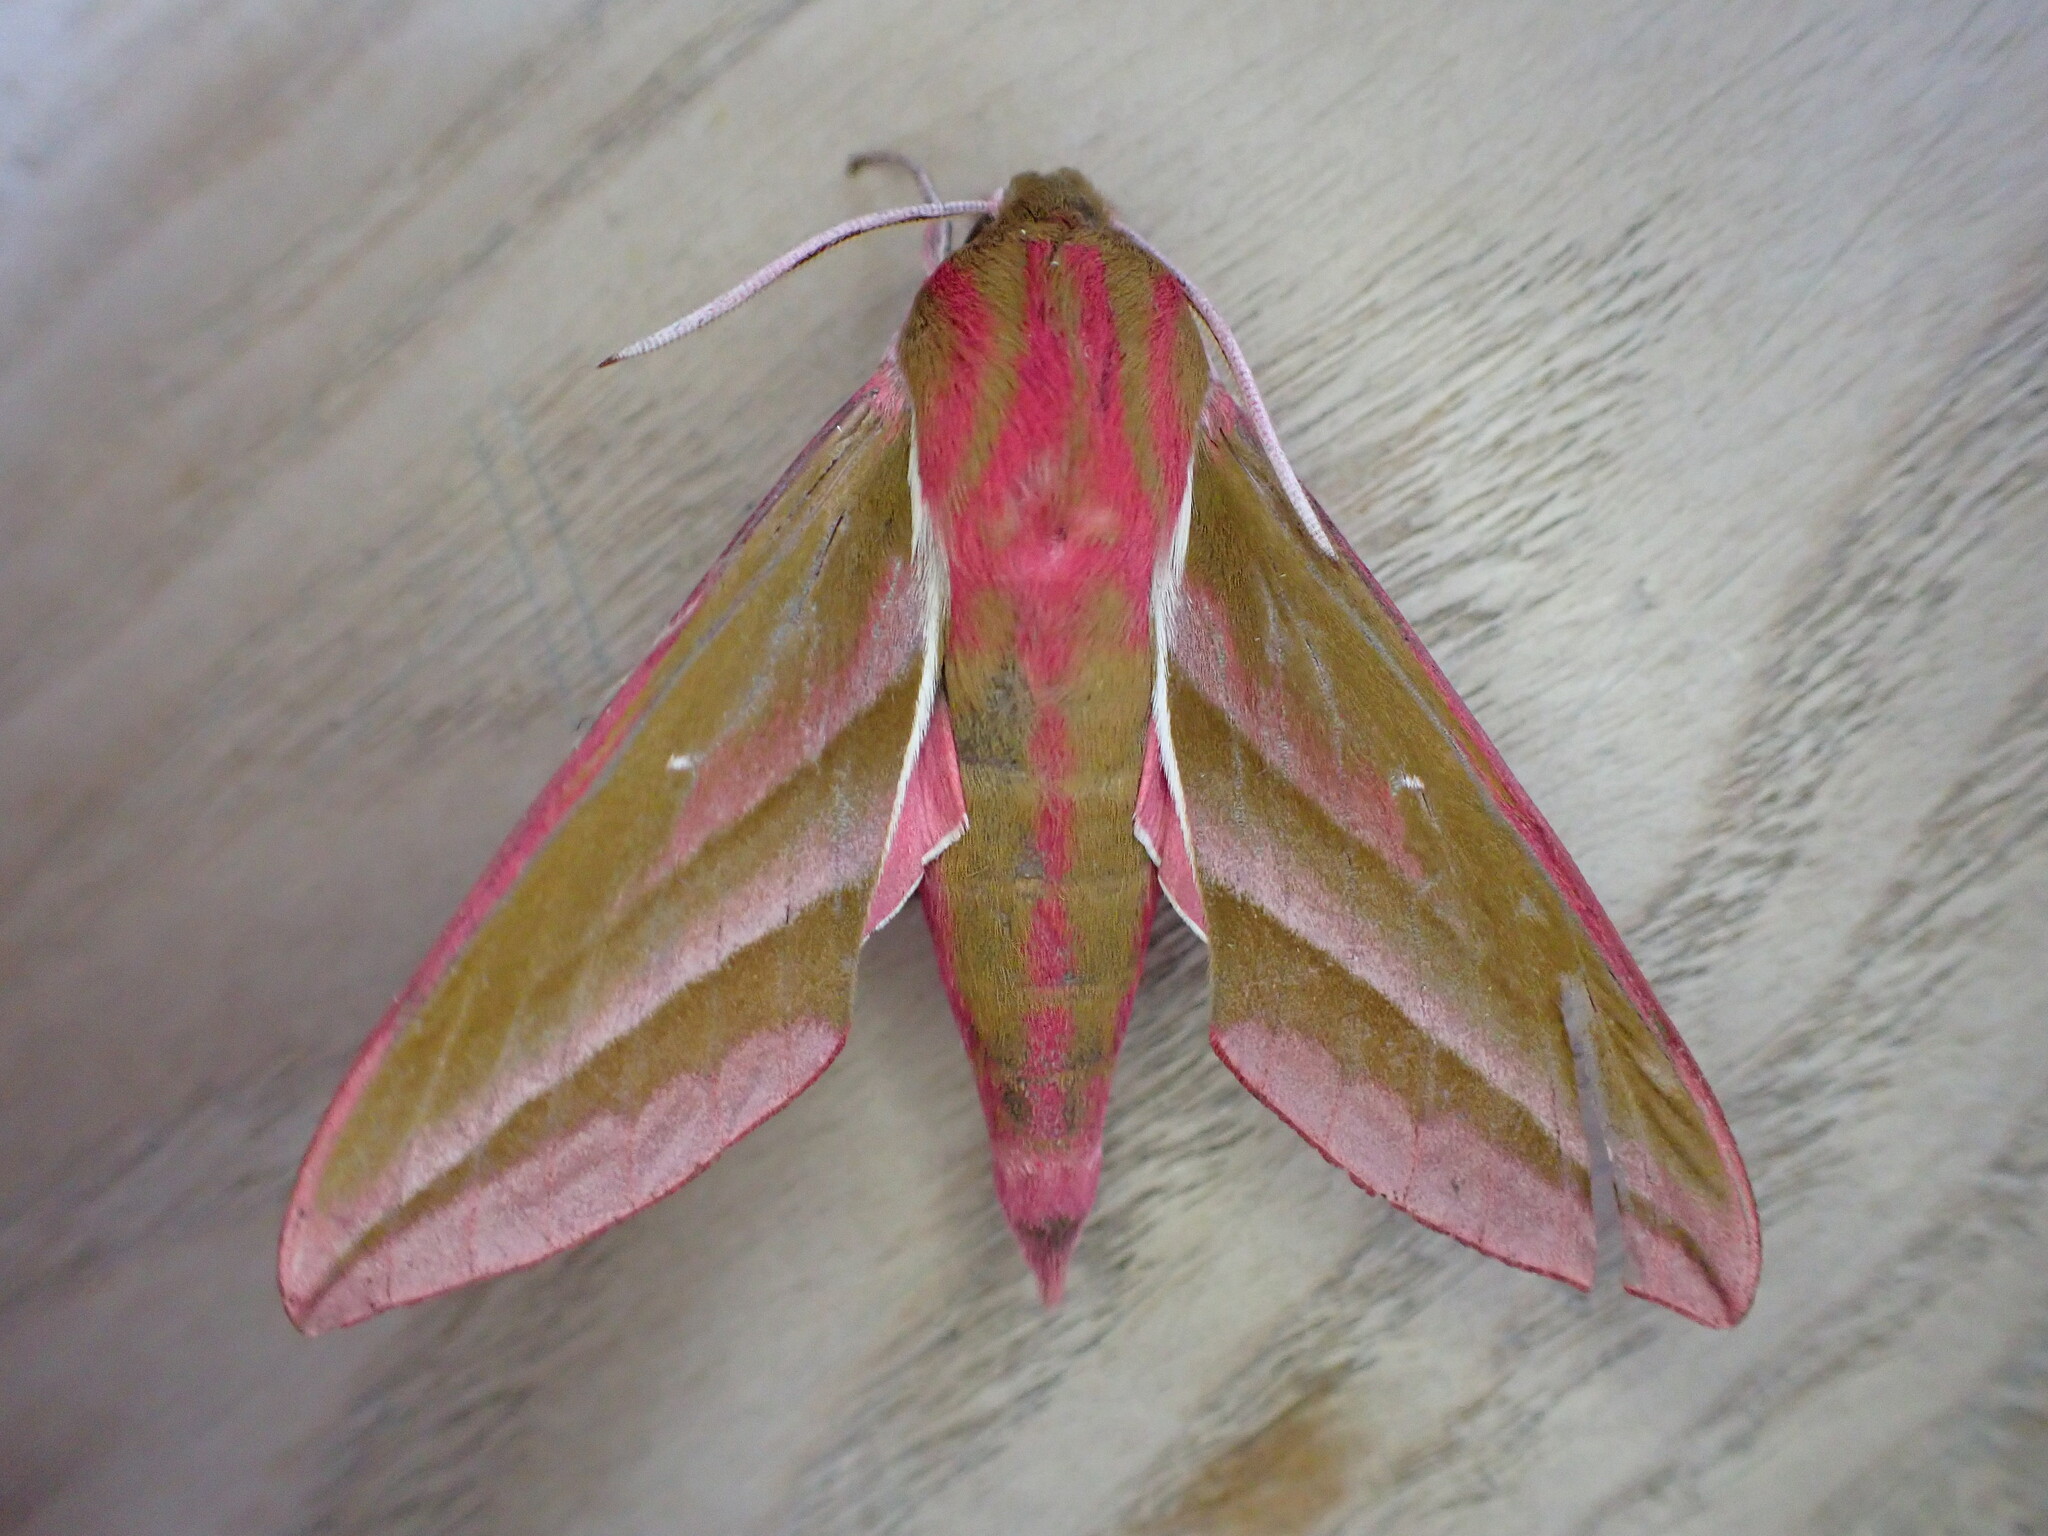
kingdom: Animalia
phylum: Arthropoda
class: Insecta
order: Lepidoptera
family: Sphingidae
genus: Deilephila
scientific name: Deilephila elpenor
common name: Elephant hawk-moth
